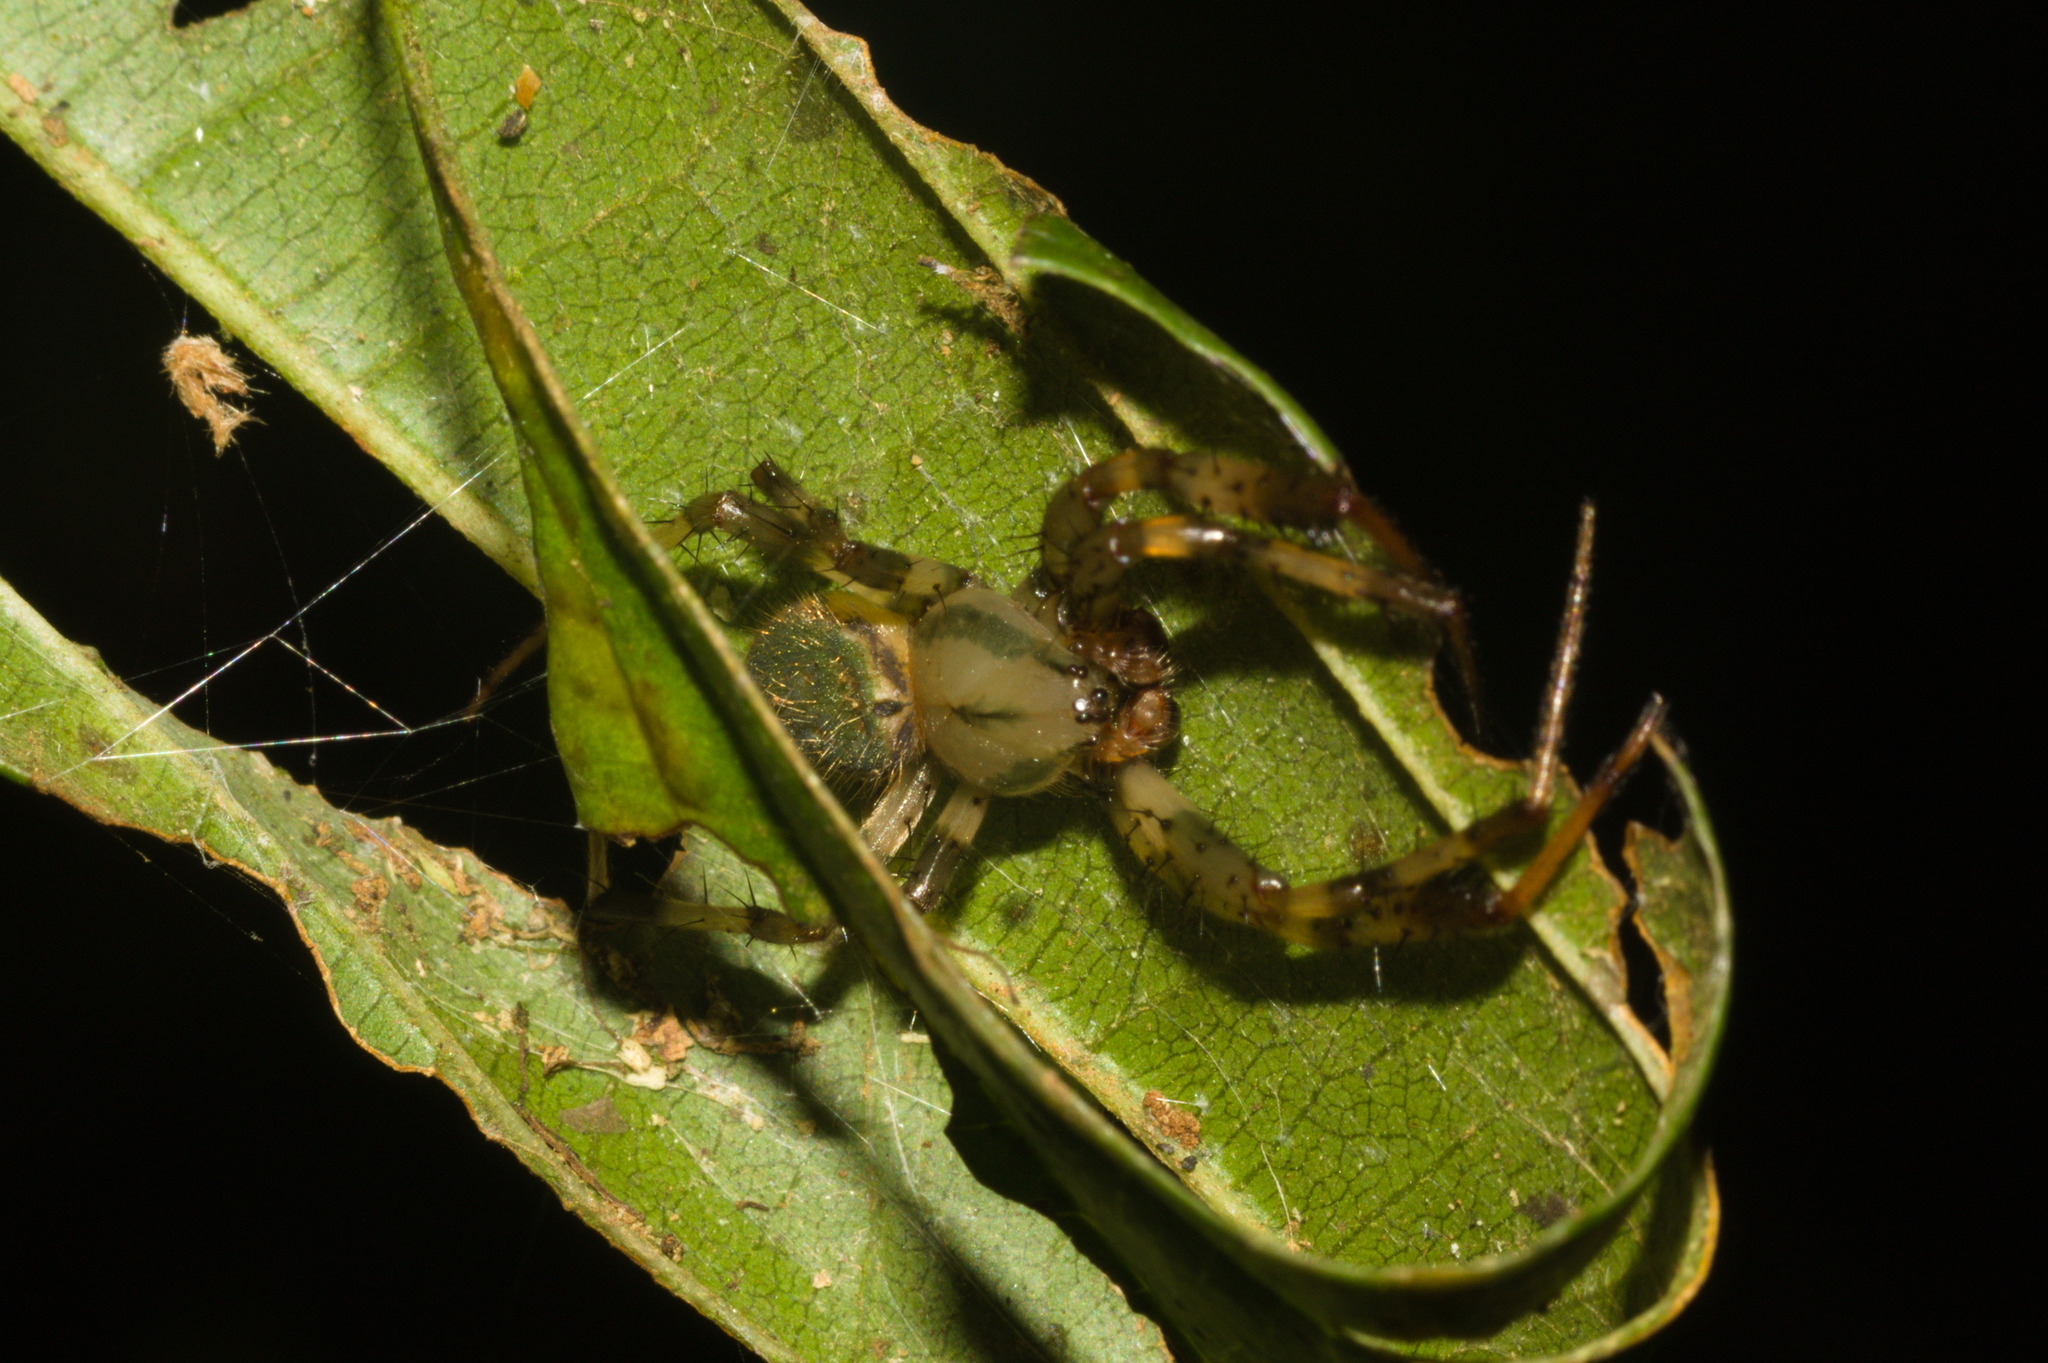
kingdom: Animalia
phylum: Arthropoda
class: Arachnida
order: Araneae
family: Araneidae
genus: Araneus
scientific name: Araneus venatrix
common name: Orb weavers
